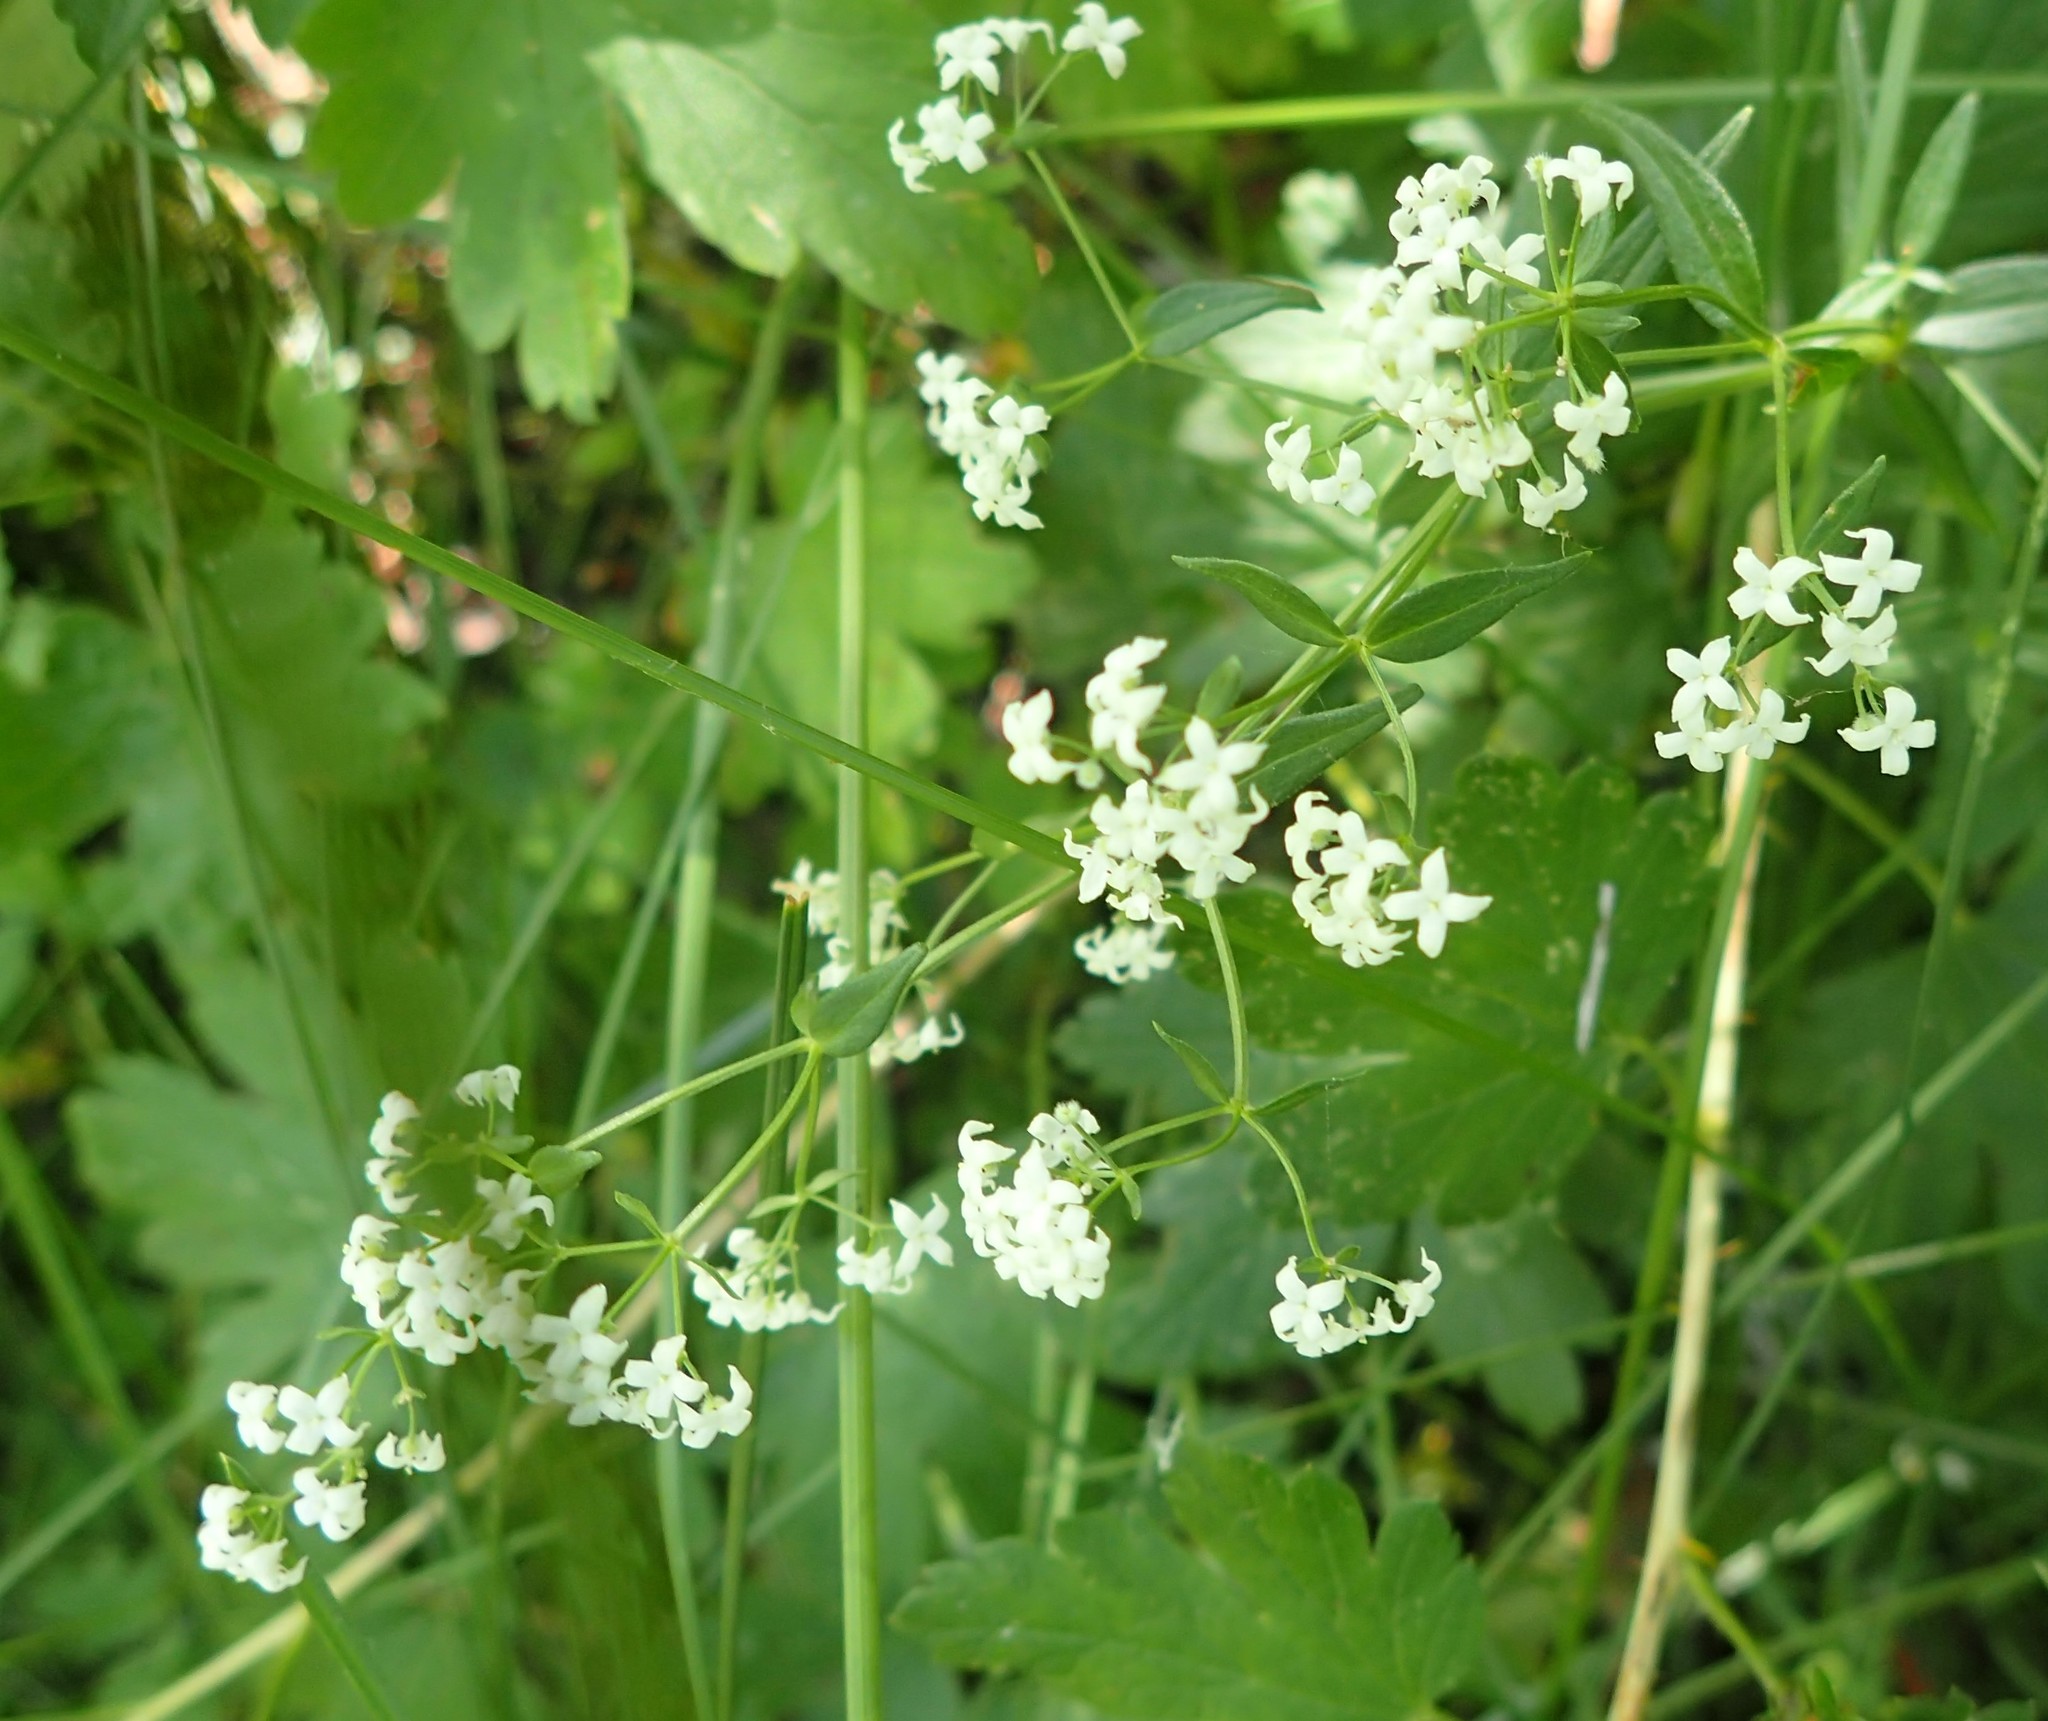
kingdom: Plantae
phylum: Tracheophyta
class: Magnoliopsida
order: Gentianales
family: Rubiaceae
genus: Galium
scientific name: Galium boreale
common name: Northern bedstraw
